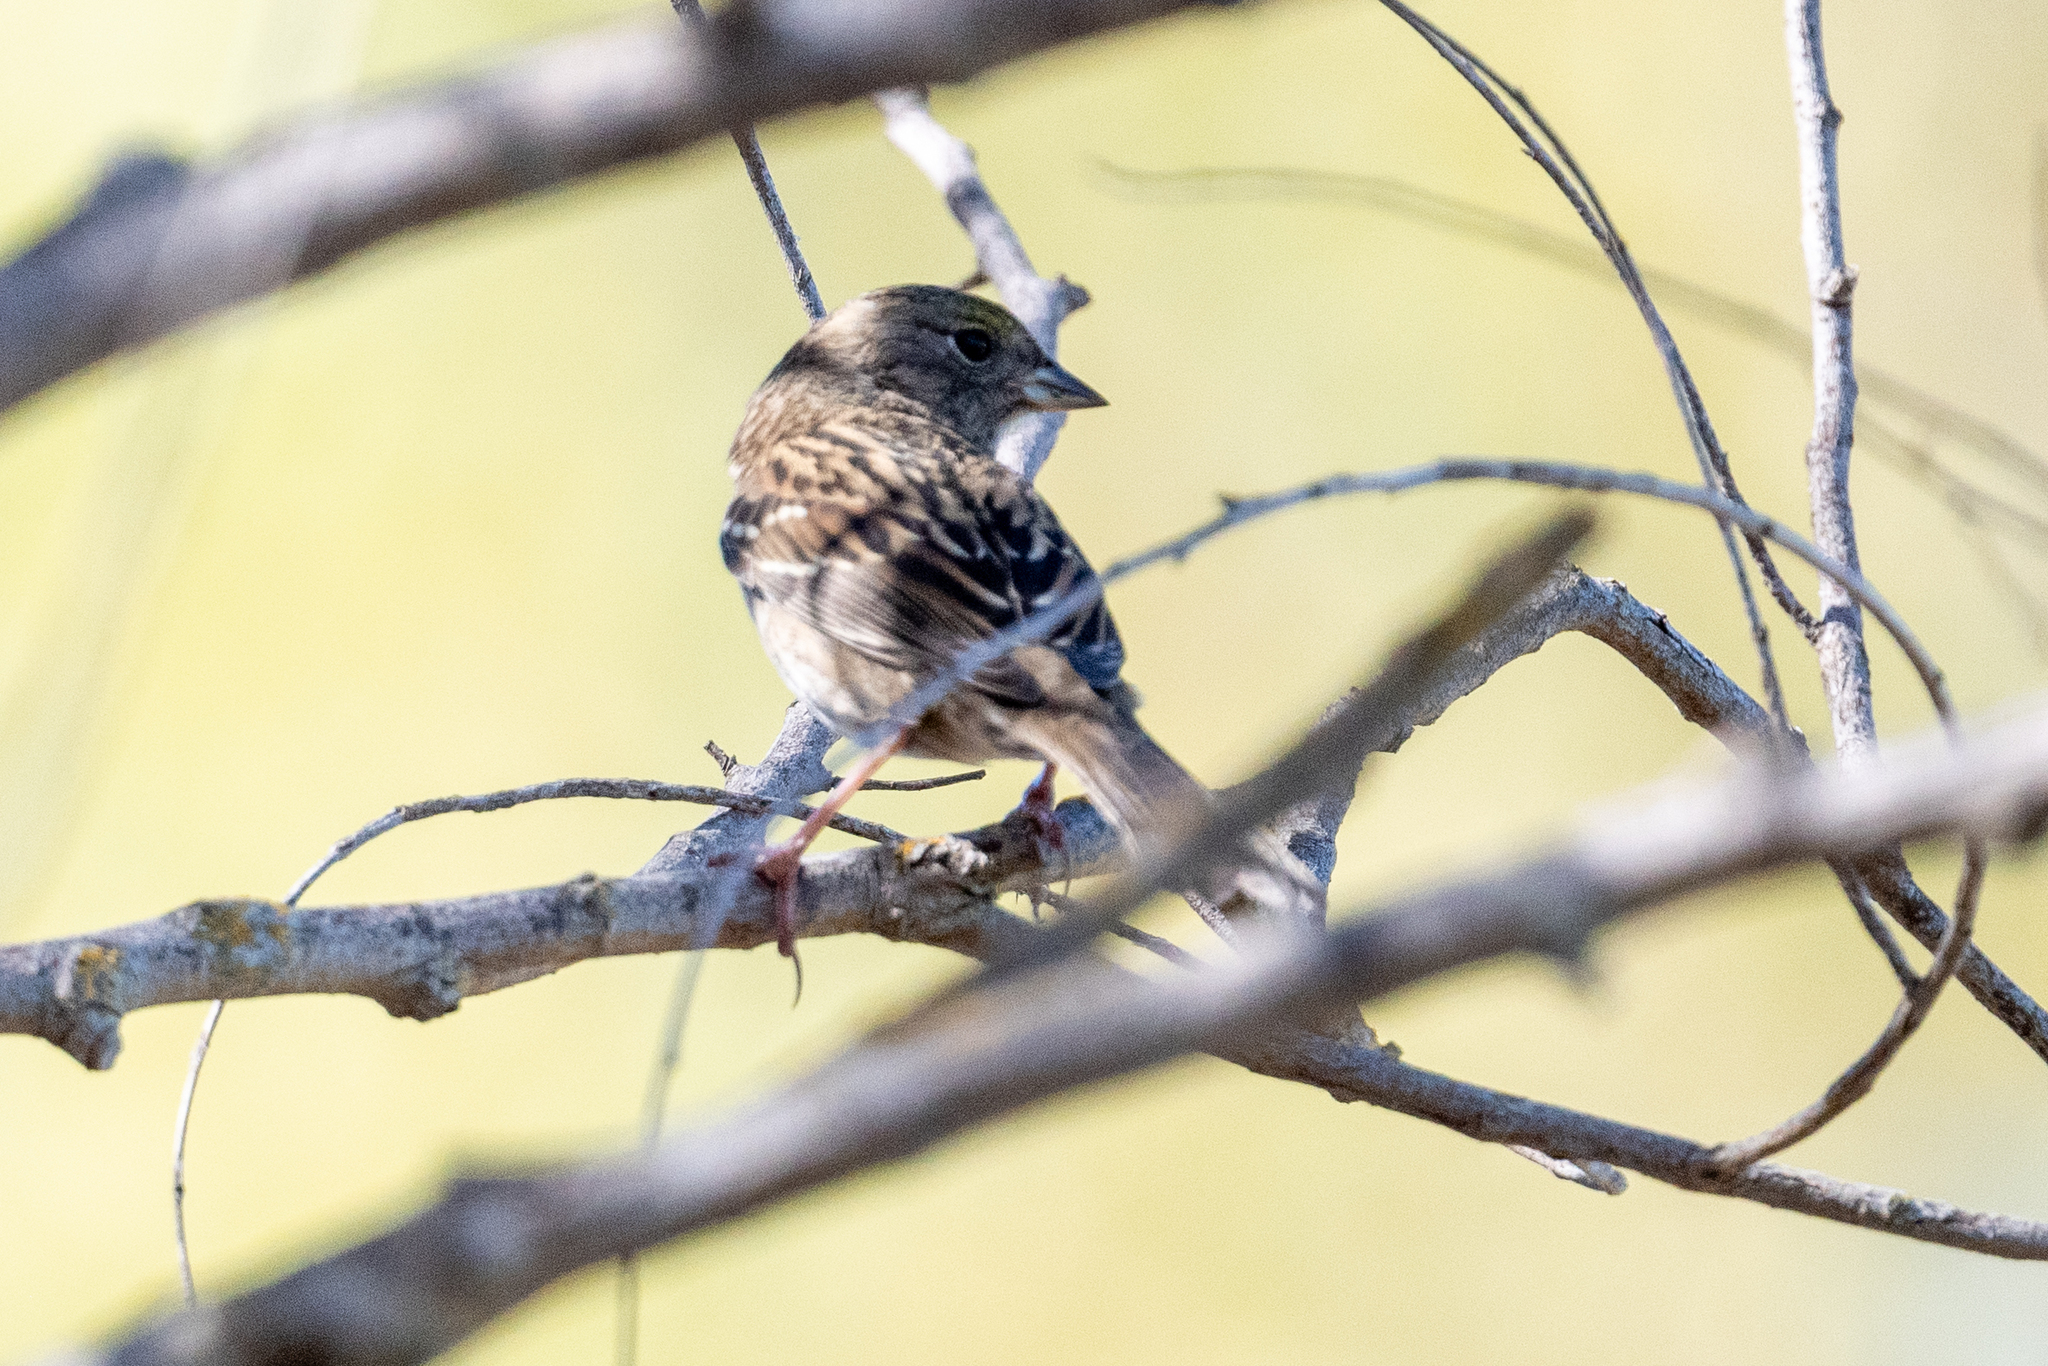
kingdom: Animalia
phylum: Chordata
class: Aves
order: Passeriformes
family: Passerellidae
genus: Zonotrichia
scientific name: Zonotrichia atricapilla
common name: Golden-crowned sparrow
